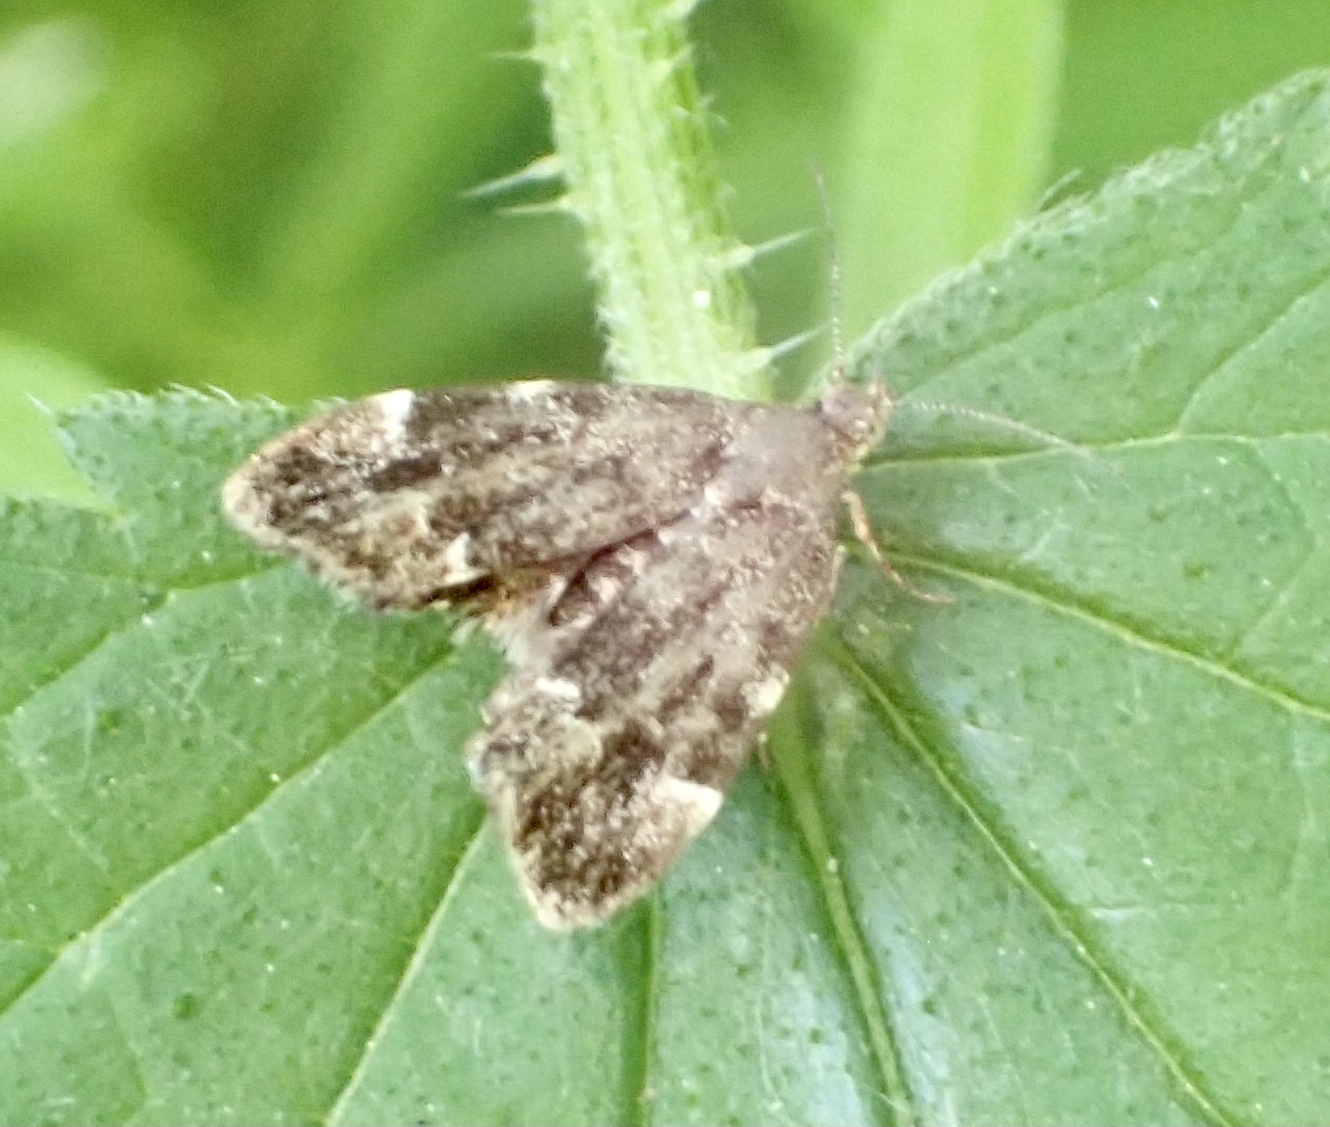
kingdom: Animalia
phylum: Arthropoda
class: Insecta
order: Lepidoptera
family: Choreutidae
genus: Anthophila
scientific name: Anthophila fabriciana
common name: Nettle-tap
